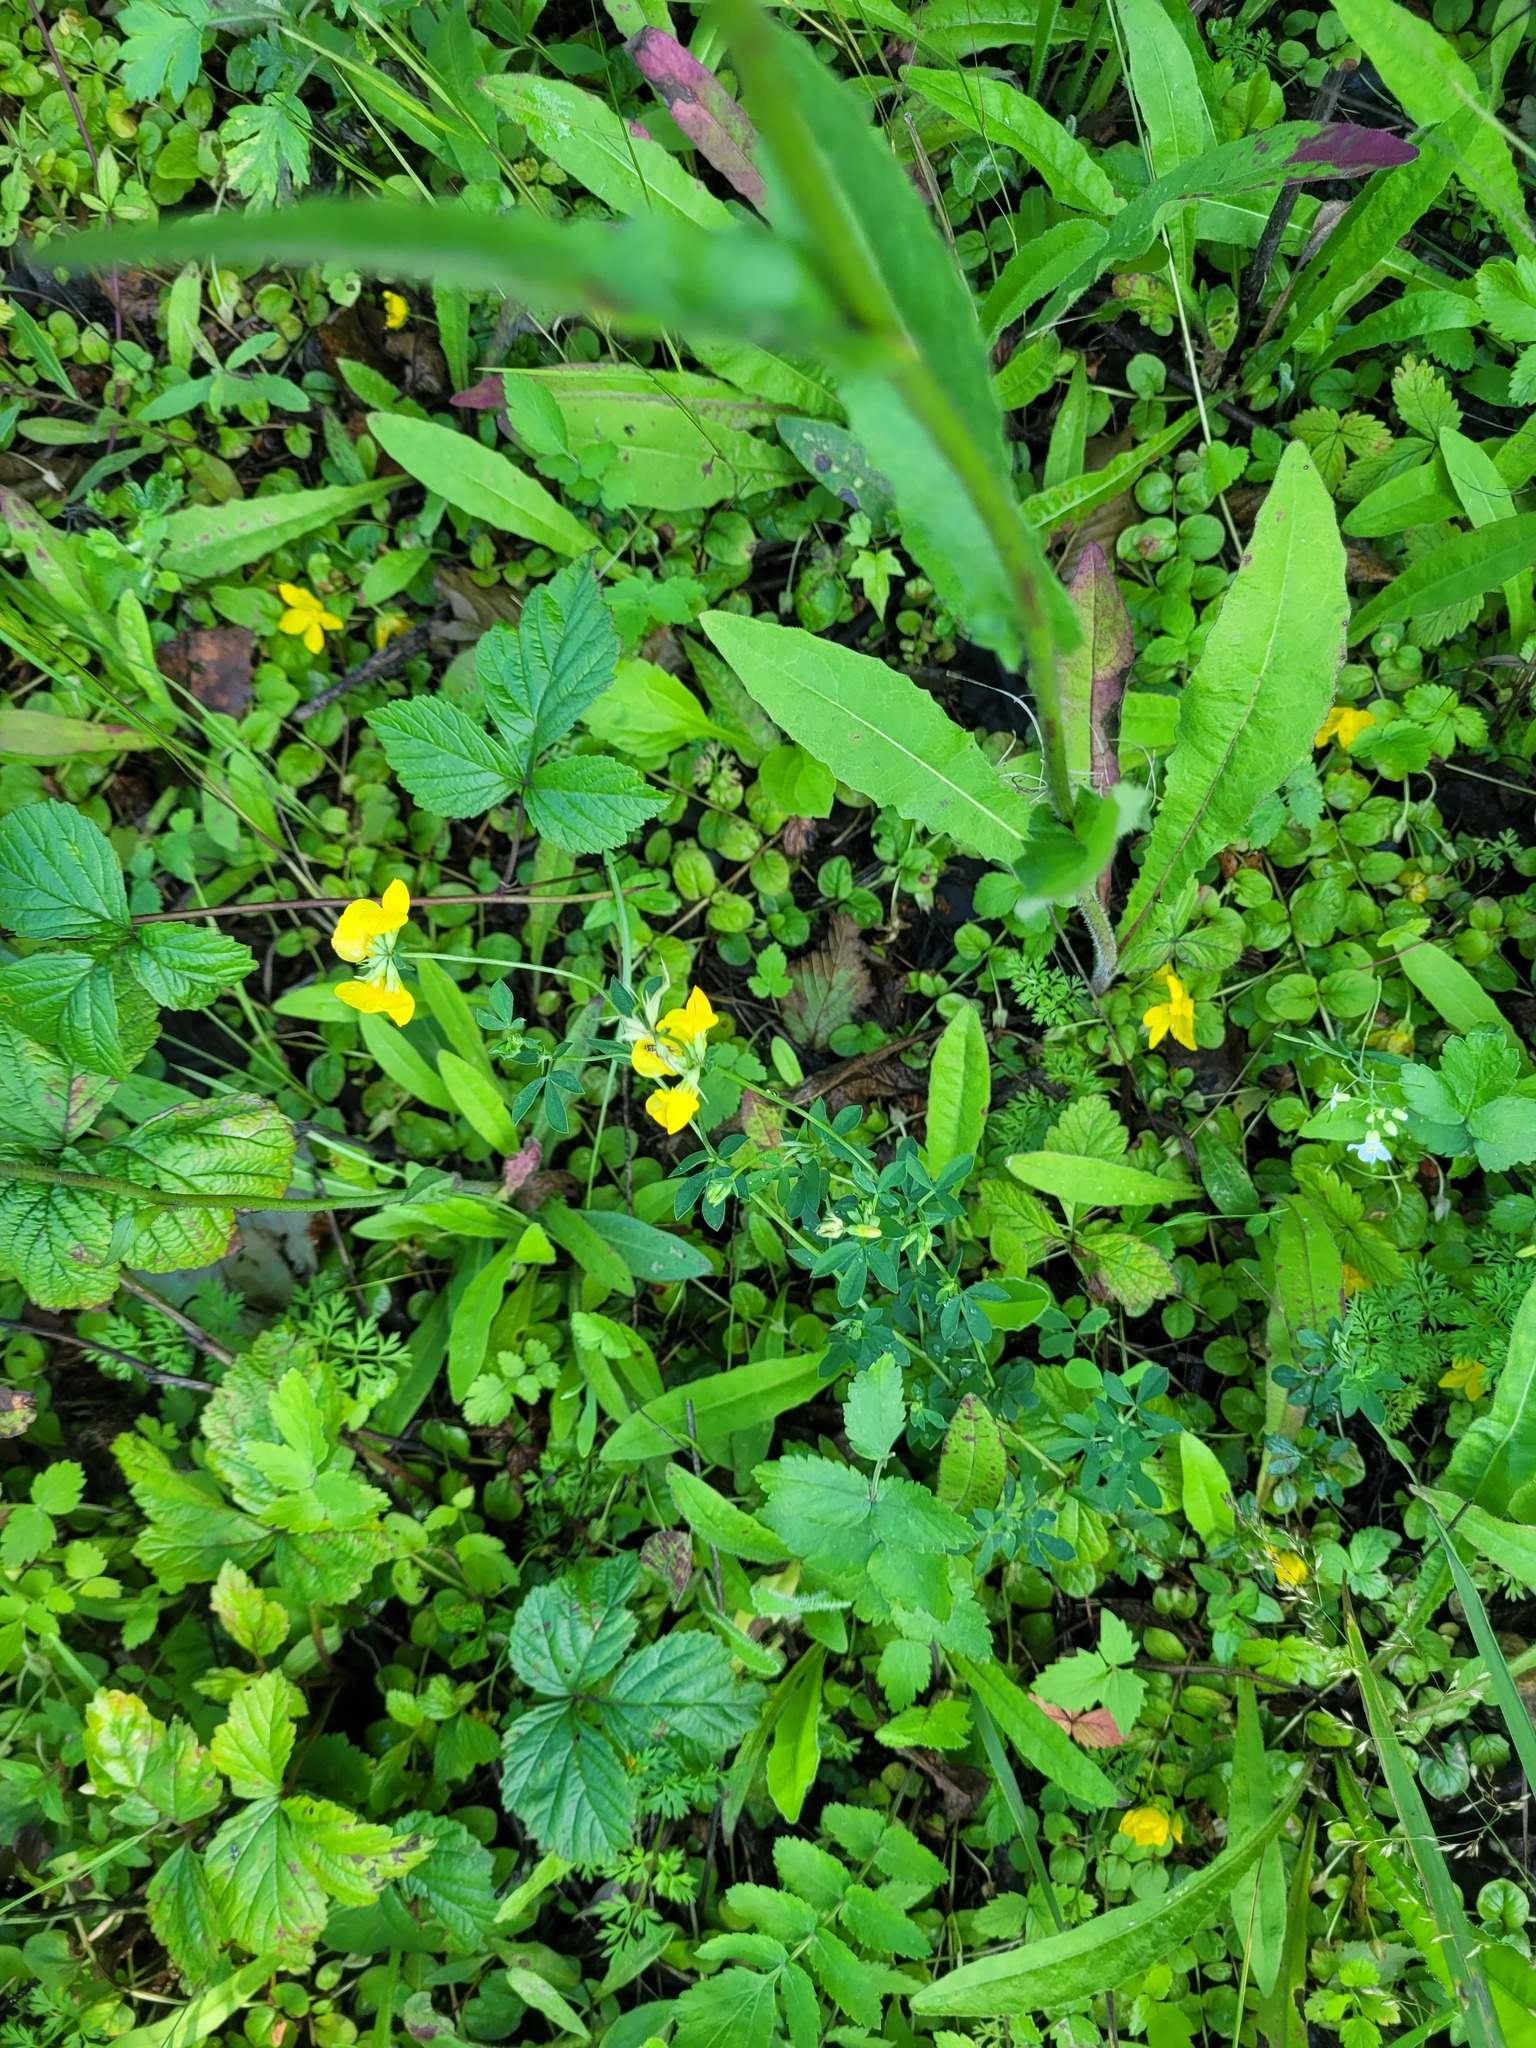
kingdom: Plantae
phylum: Tracheophyta
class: Magnoliopsida
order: Fabales
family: Fabaceae
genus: Lotus
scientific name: Lotus corniculatus
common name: Common bird's-foot-trefoil
